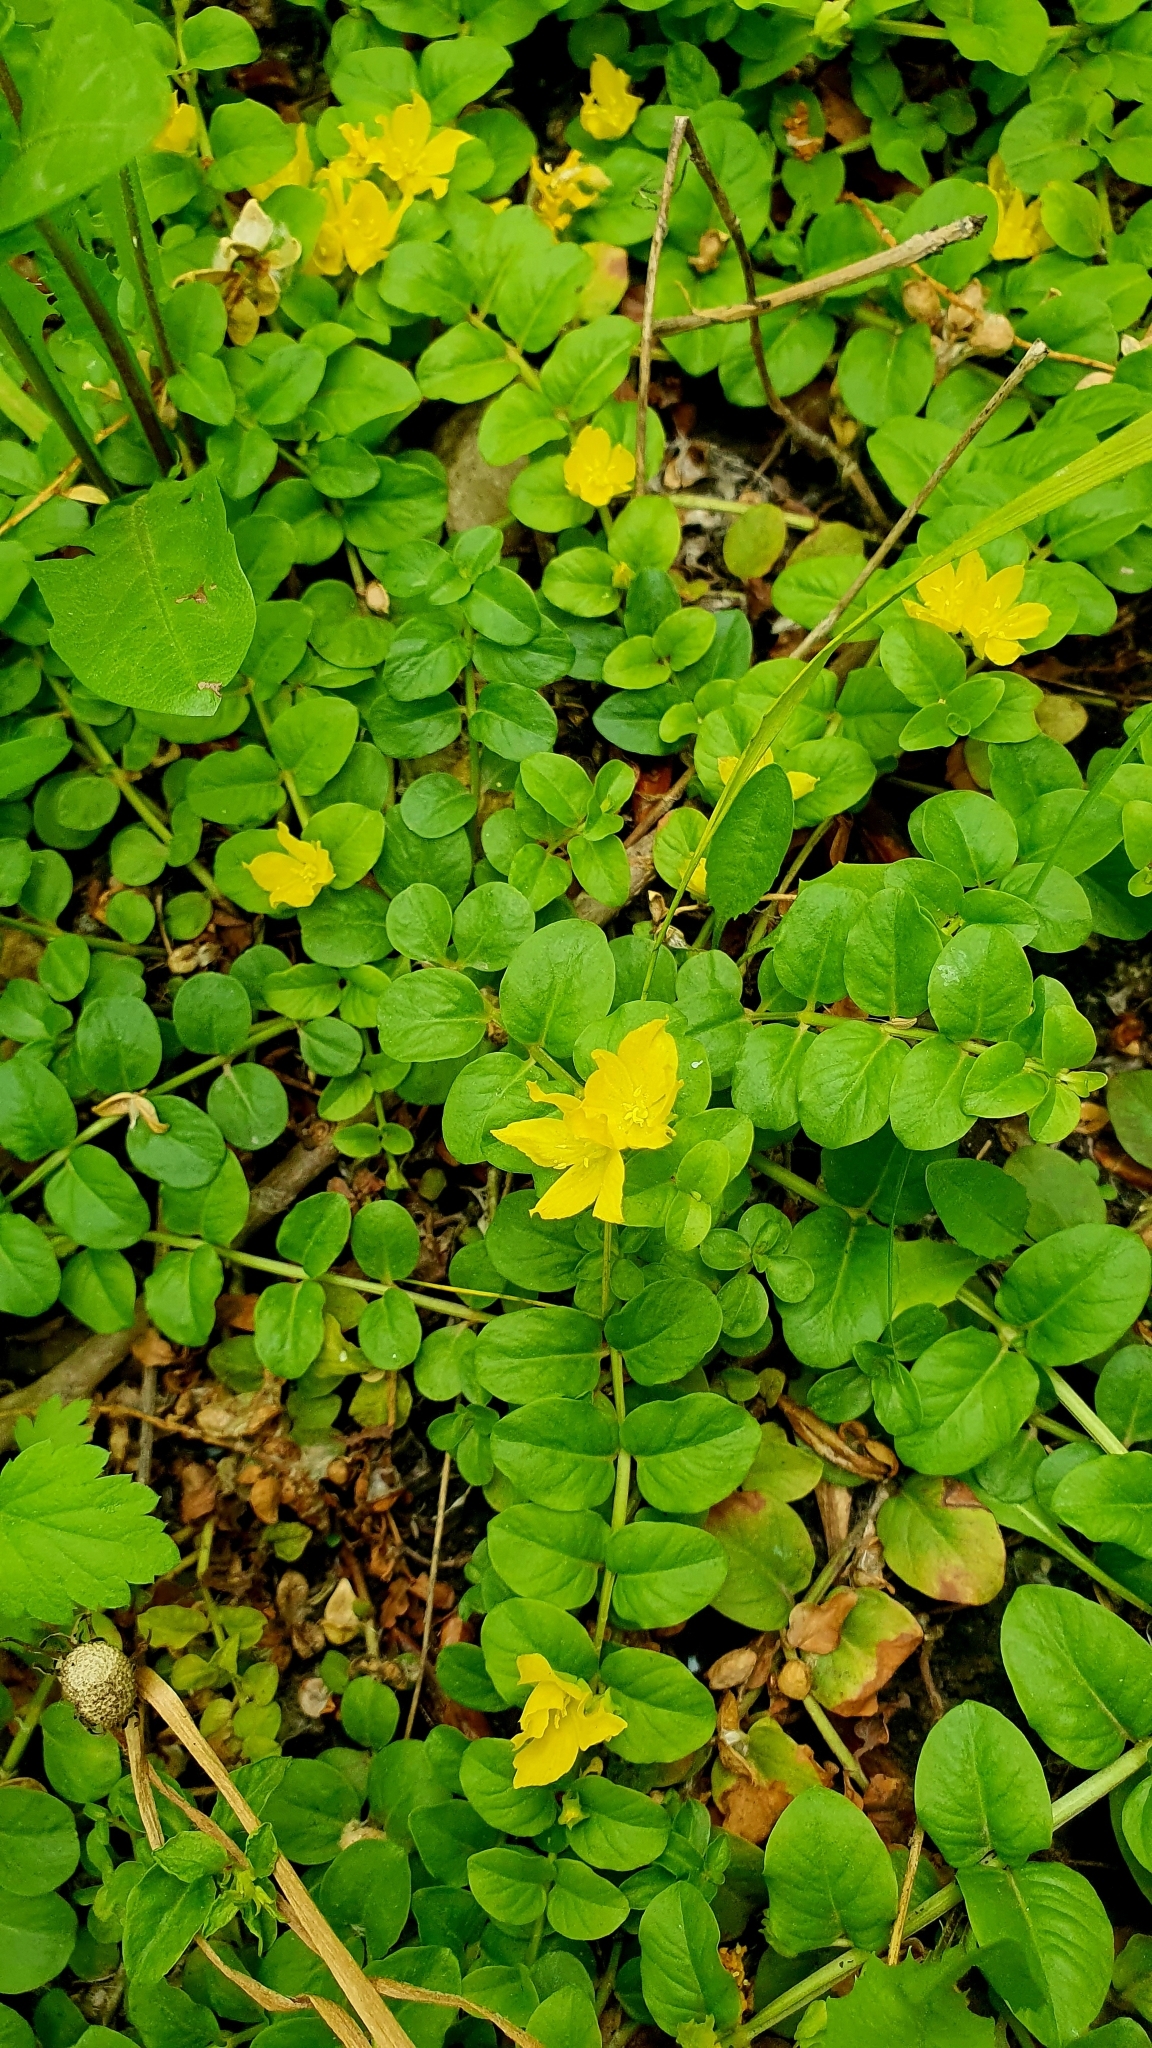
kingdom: Plantae
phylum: Tracheophyta
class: Magnoliopsida
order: Ericales
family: Primulaceae
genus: Lysimachia
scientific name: Lysimachia nummularia
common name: Moneywort
